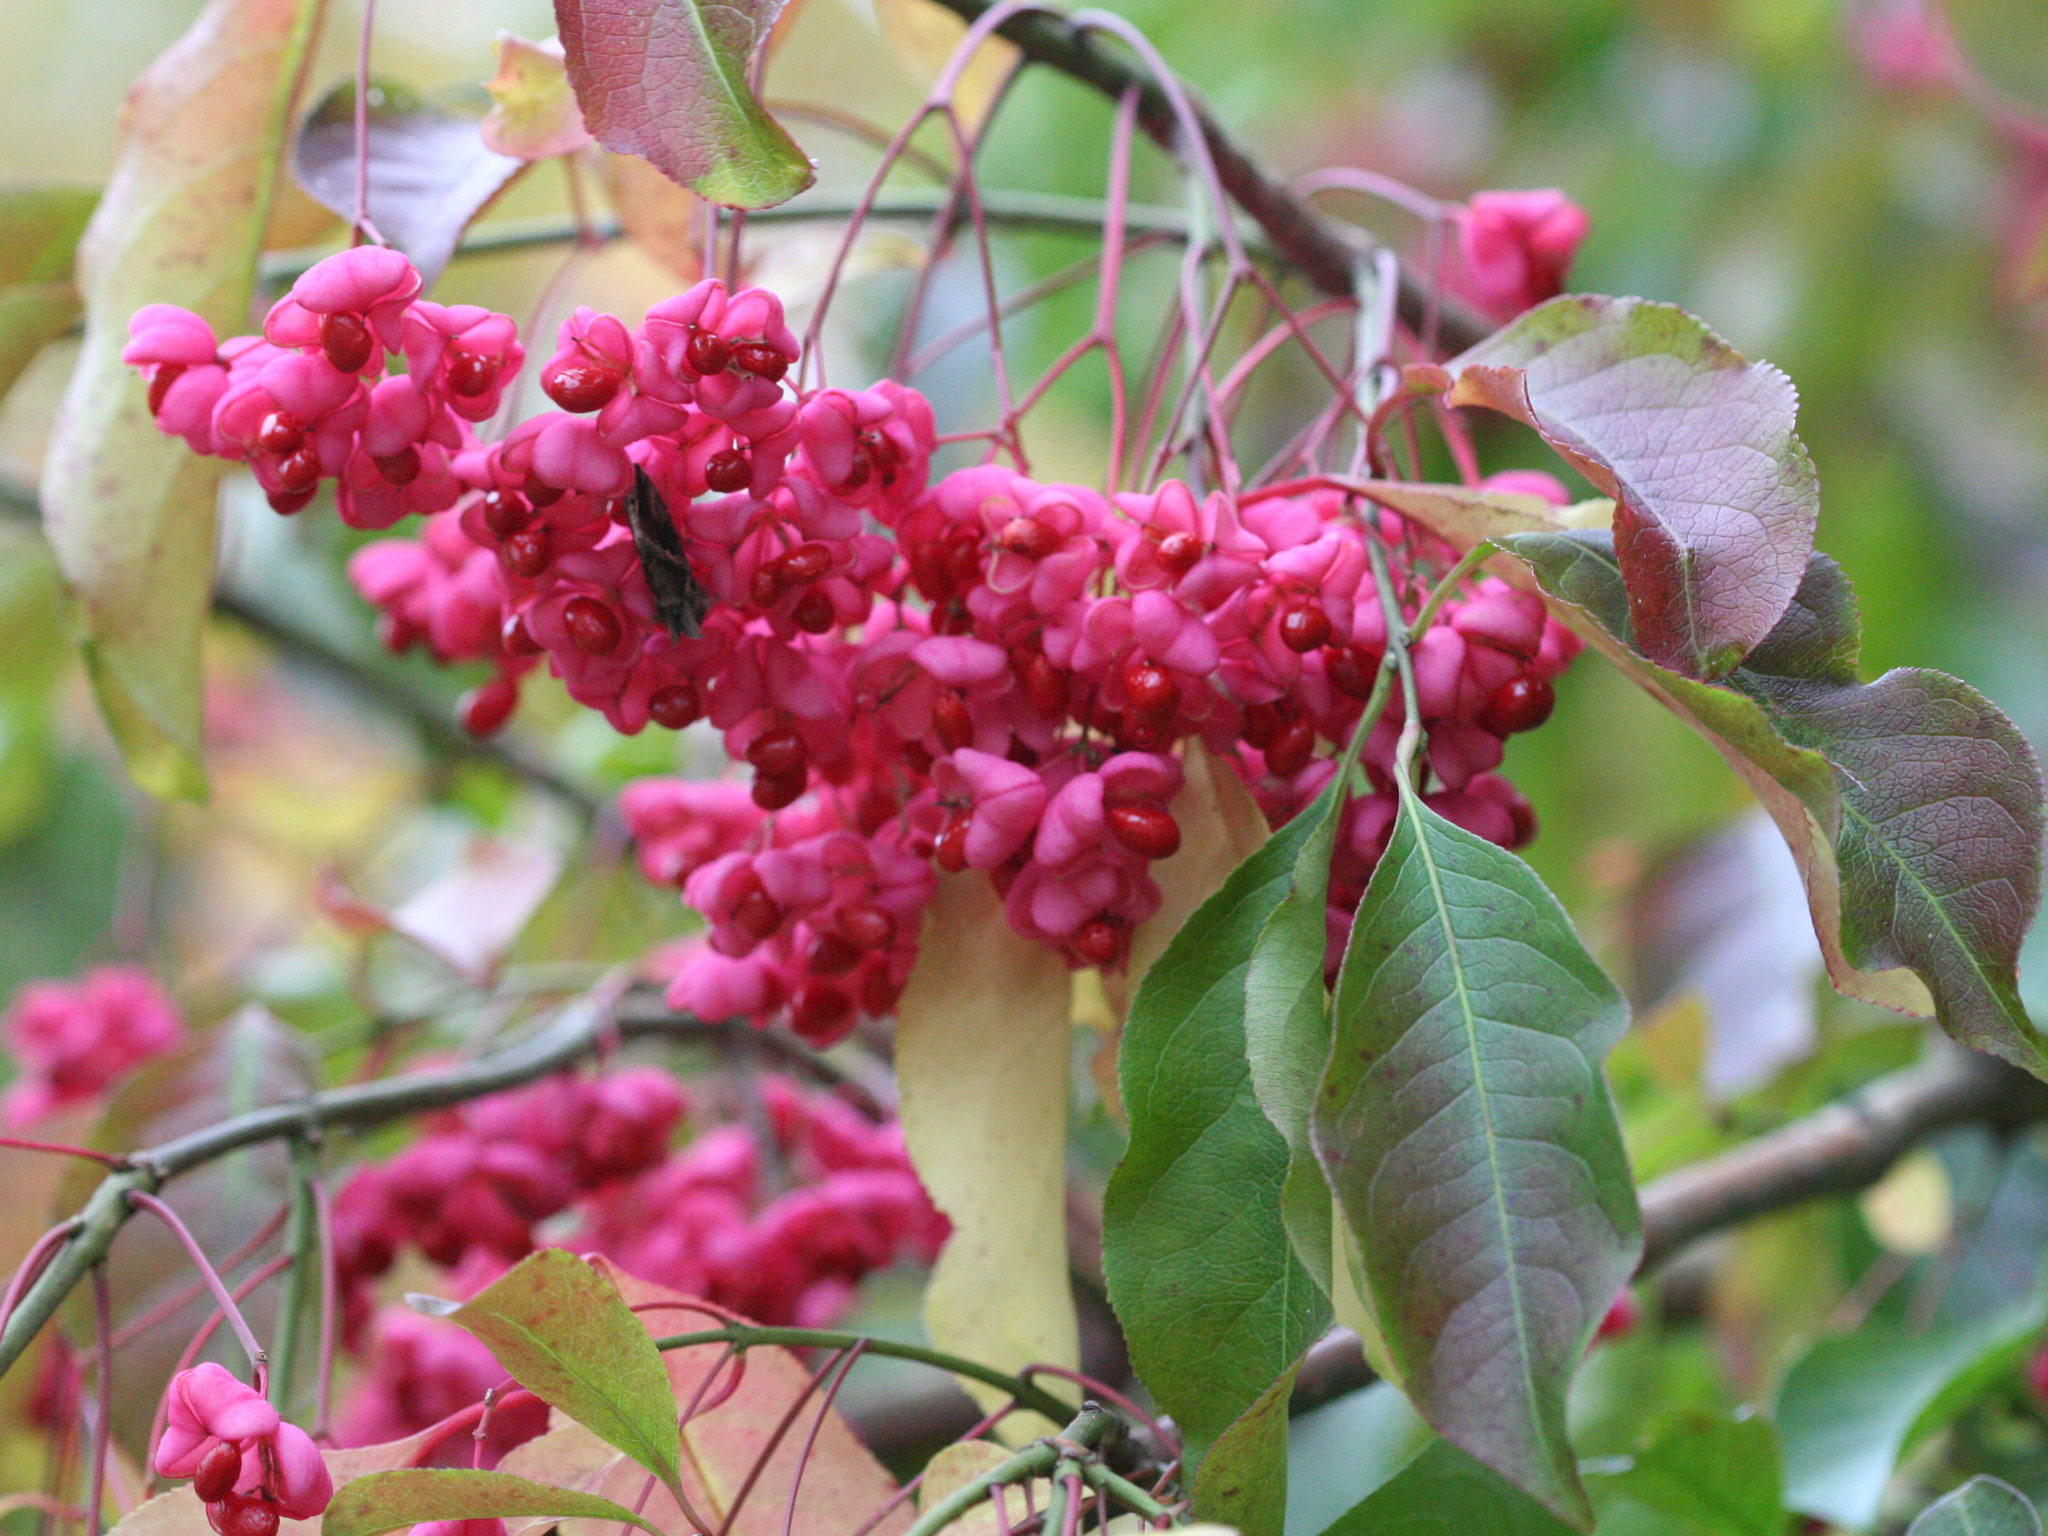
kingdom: Plantae
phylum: Tracheophyta
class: Magnoliopsida
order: Celastrales
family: Celastraceae
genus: Euonymus
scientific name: Euonymus europaeus
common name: Spindle
